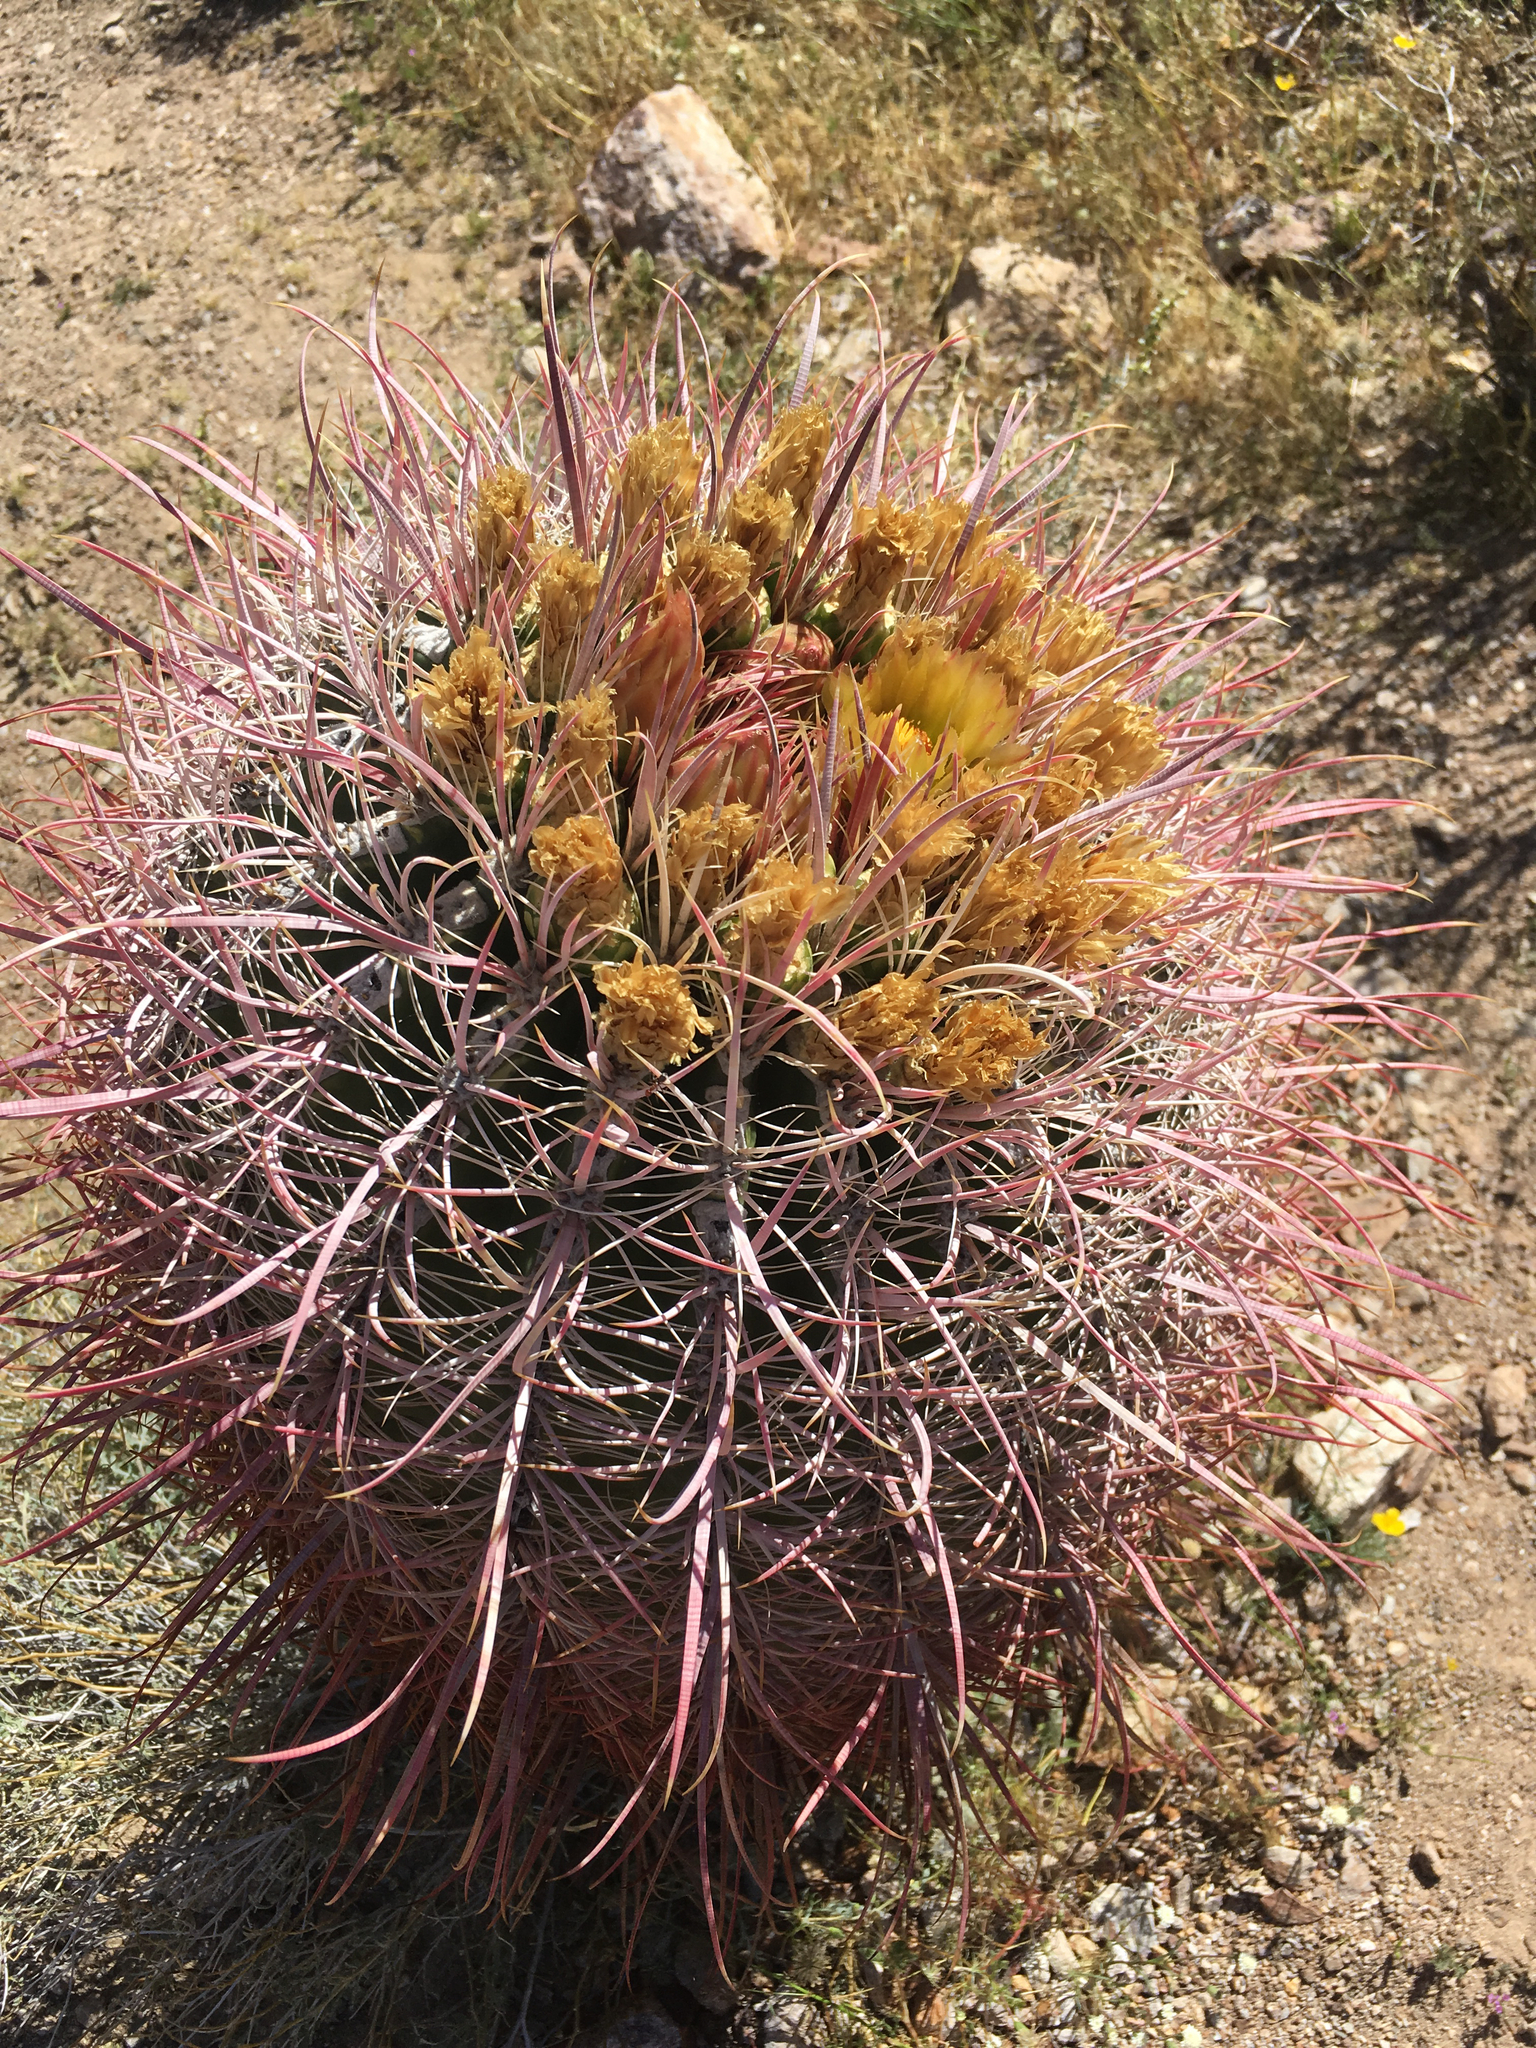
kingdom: Plantae
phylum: Tracheophyta
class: Magnoliopsida
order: Caryophyllales
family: Cactaceae
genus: Ferocactus
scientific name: Ferocactus cylindraceus
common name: California barrel cactus
